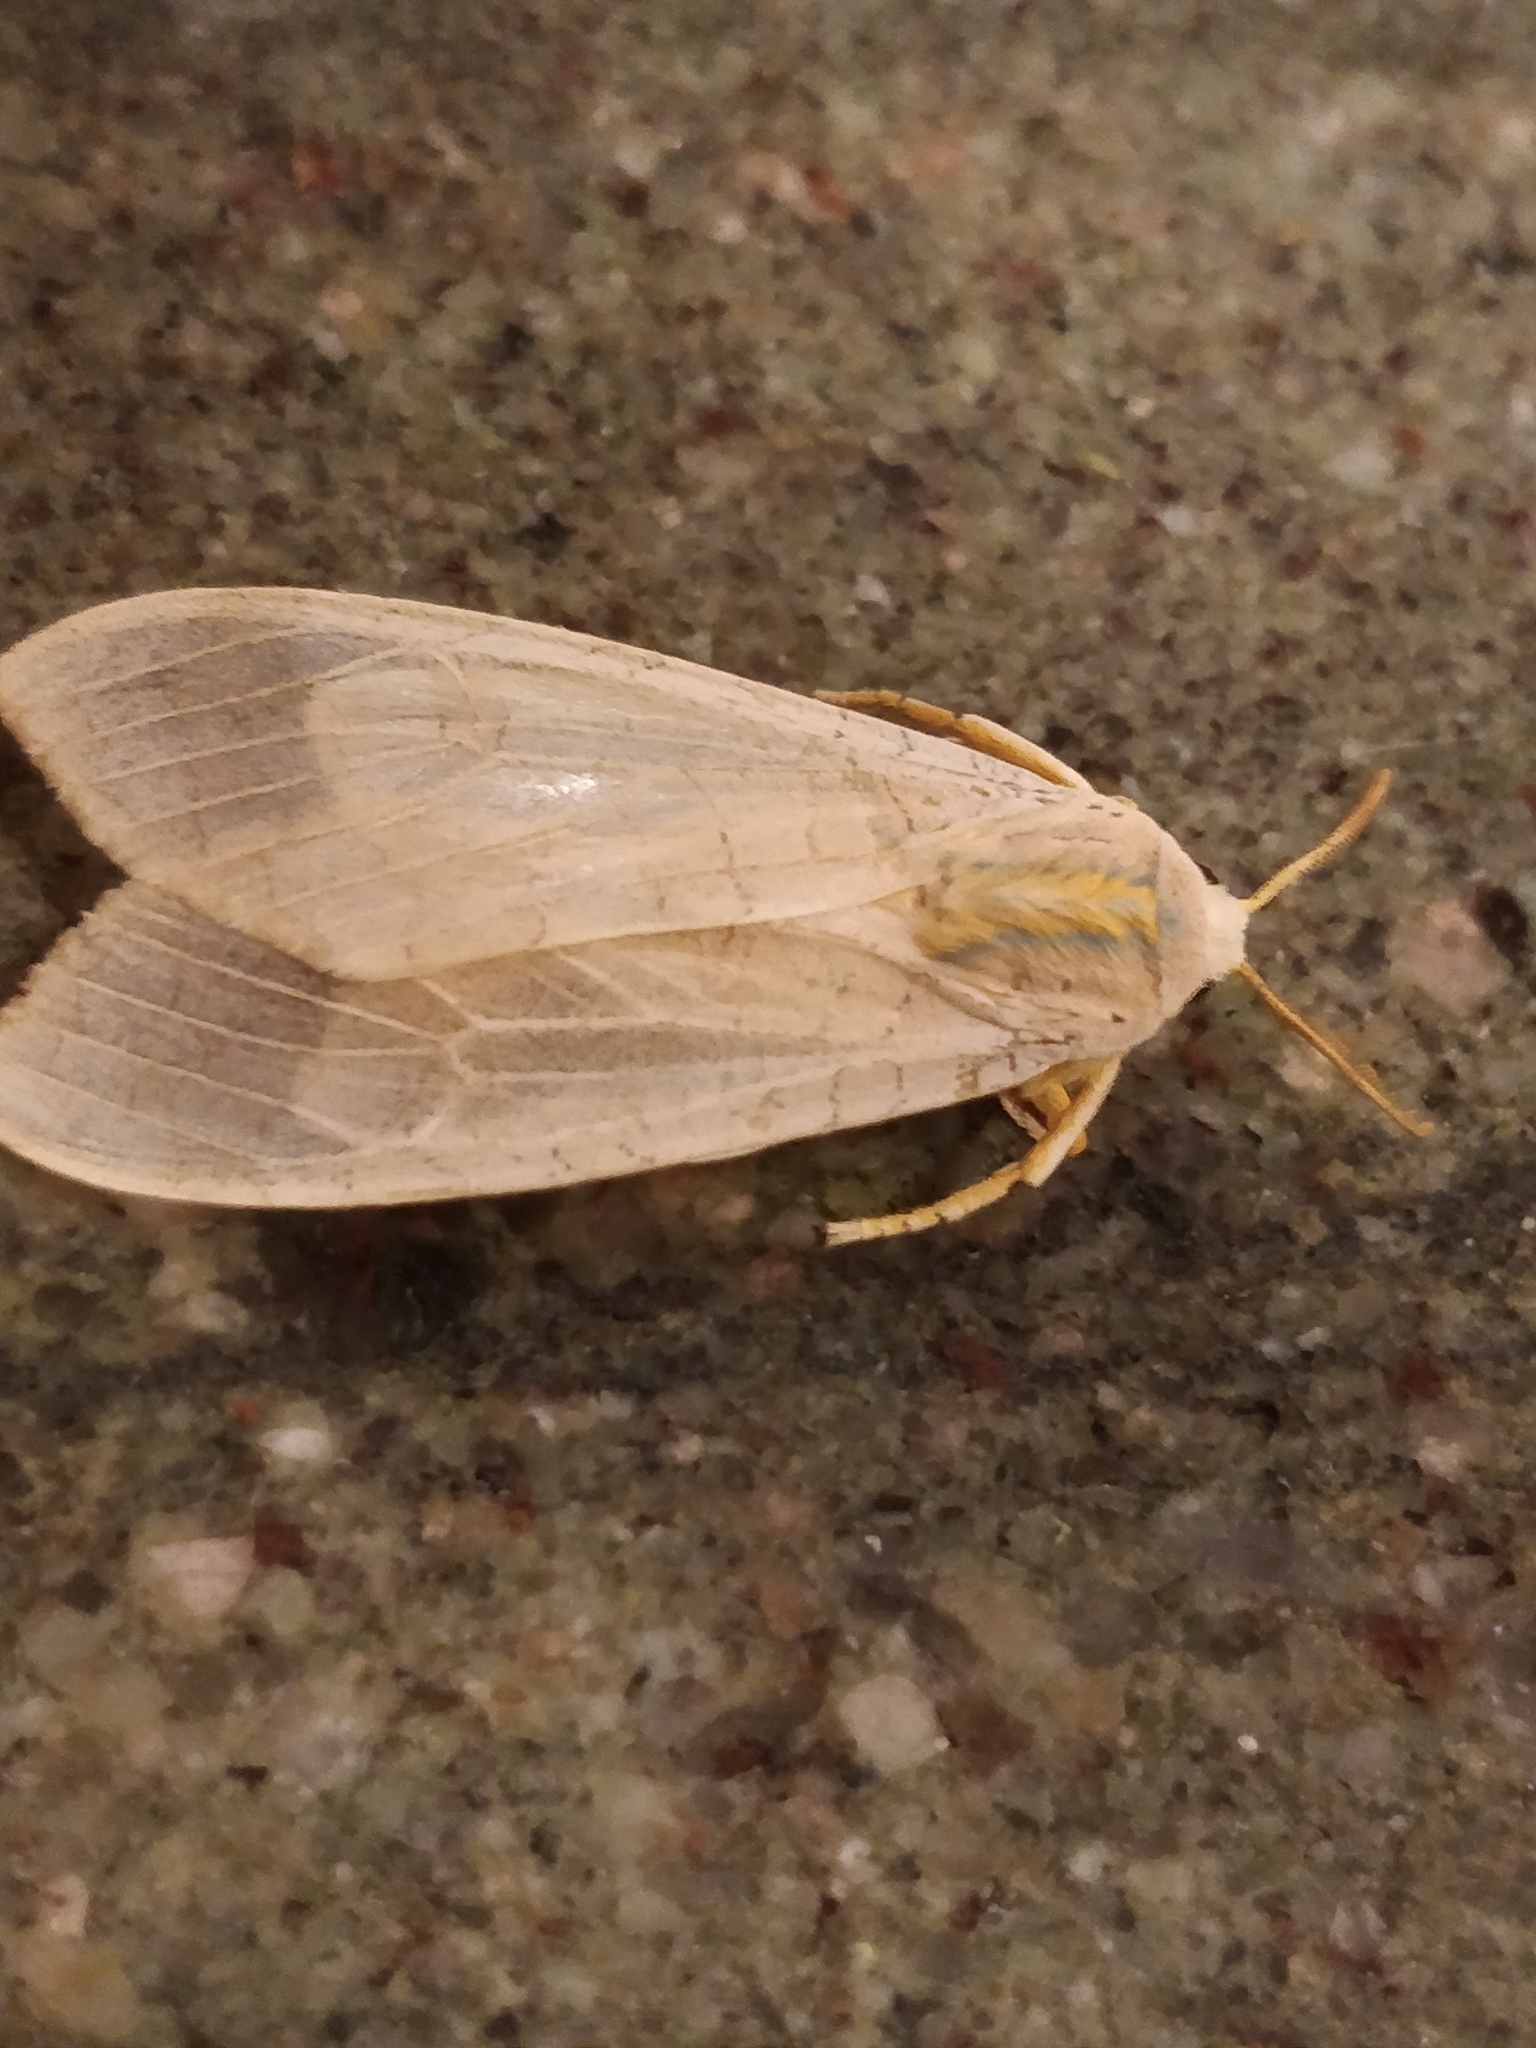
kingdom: Animalia
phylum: Arthropoda
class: Insecta
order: Lepidoptera
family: Erebidae
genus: Halysidota
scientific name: Halysidota
